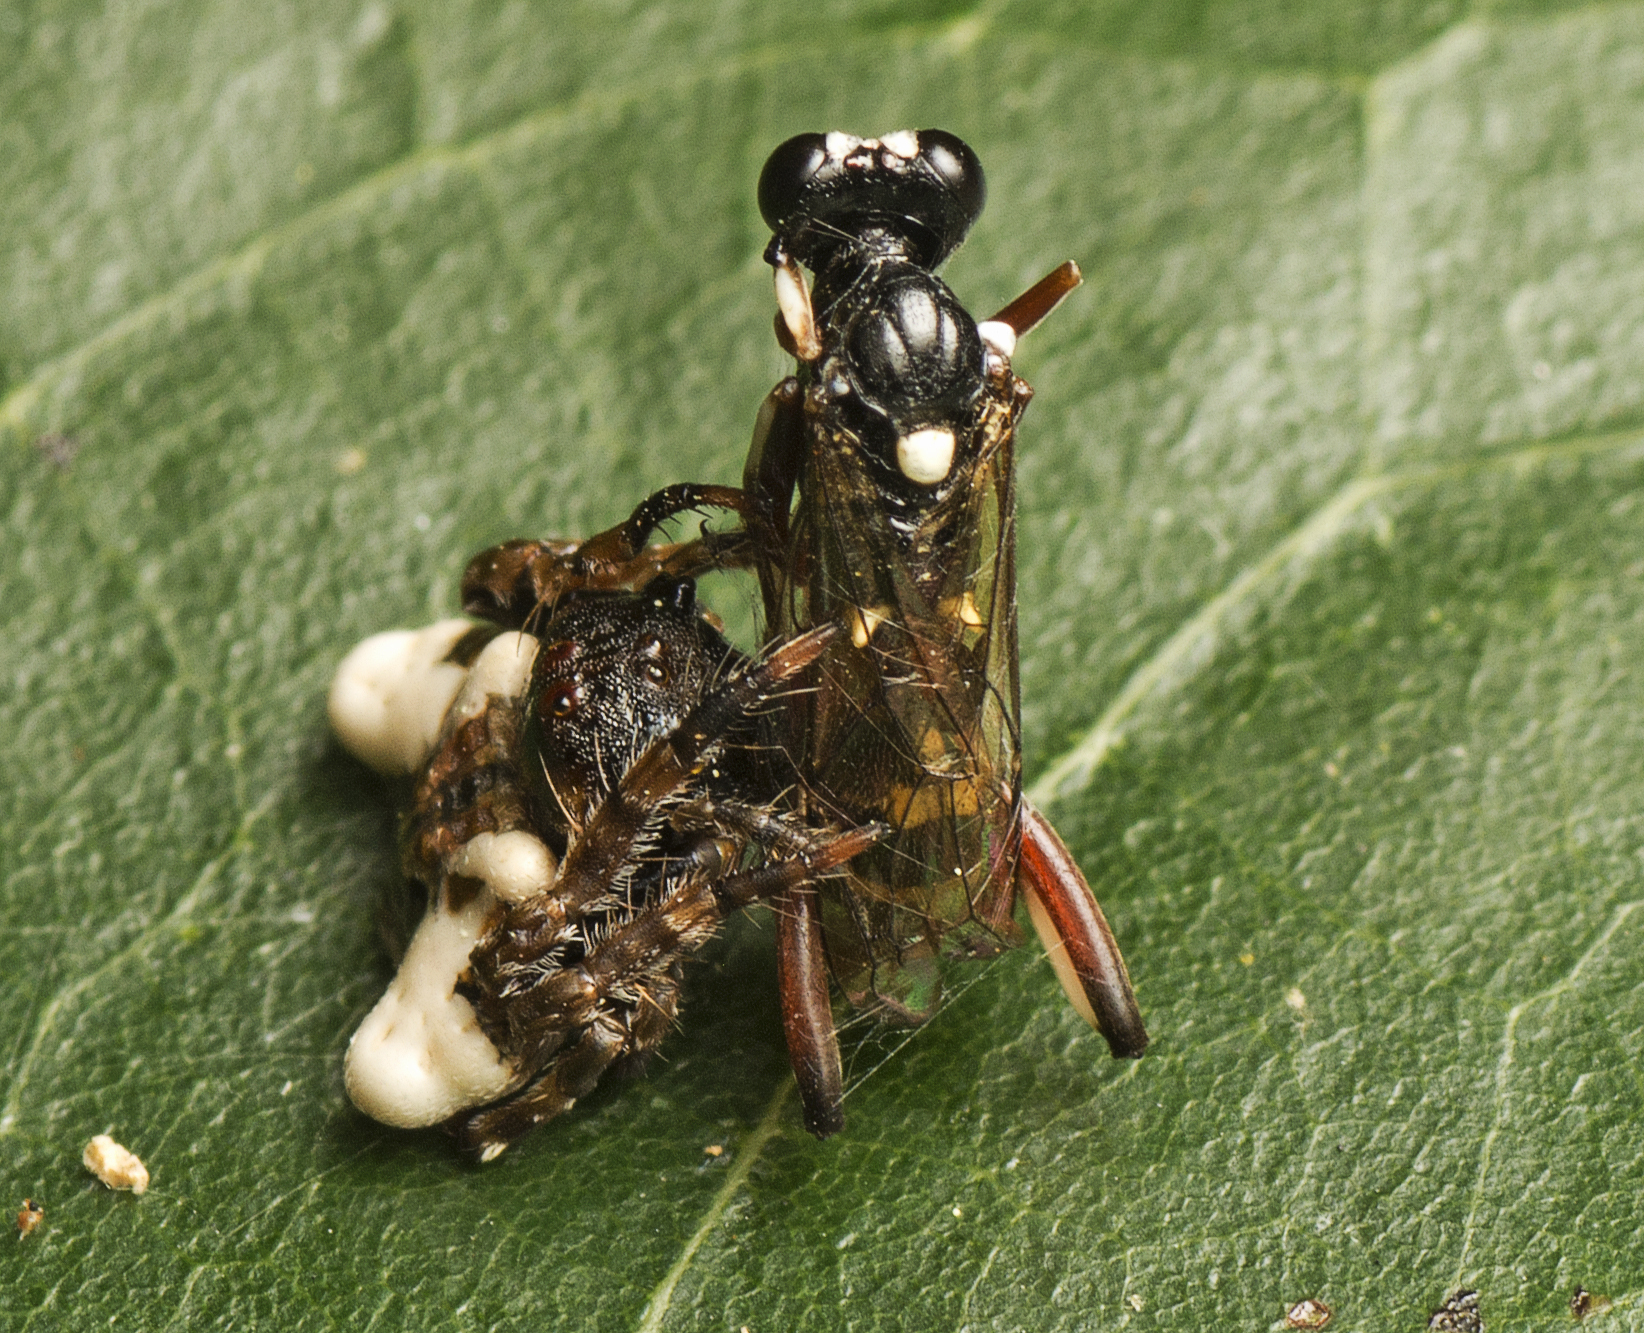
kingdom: Animalia
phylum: Arthropoda
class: Arachnida
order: Araneae
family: Arkyidae
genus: Arkys
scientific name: Arkys curtulus
